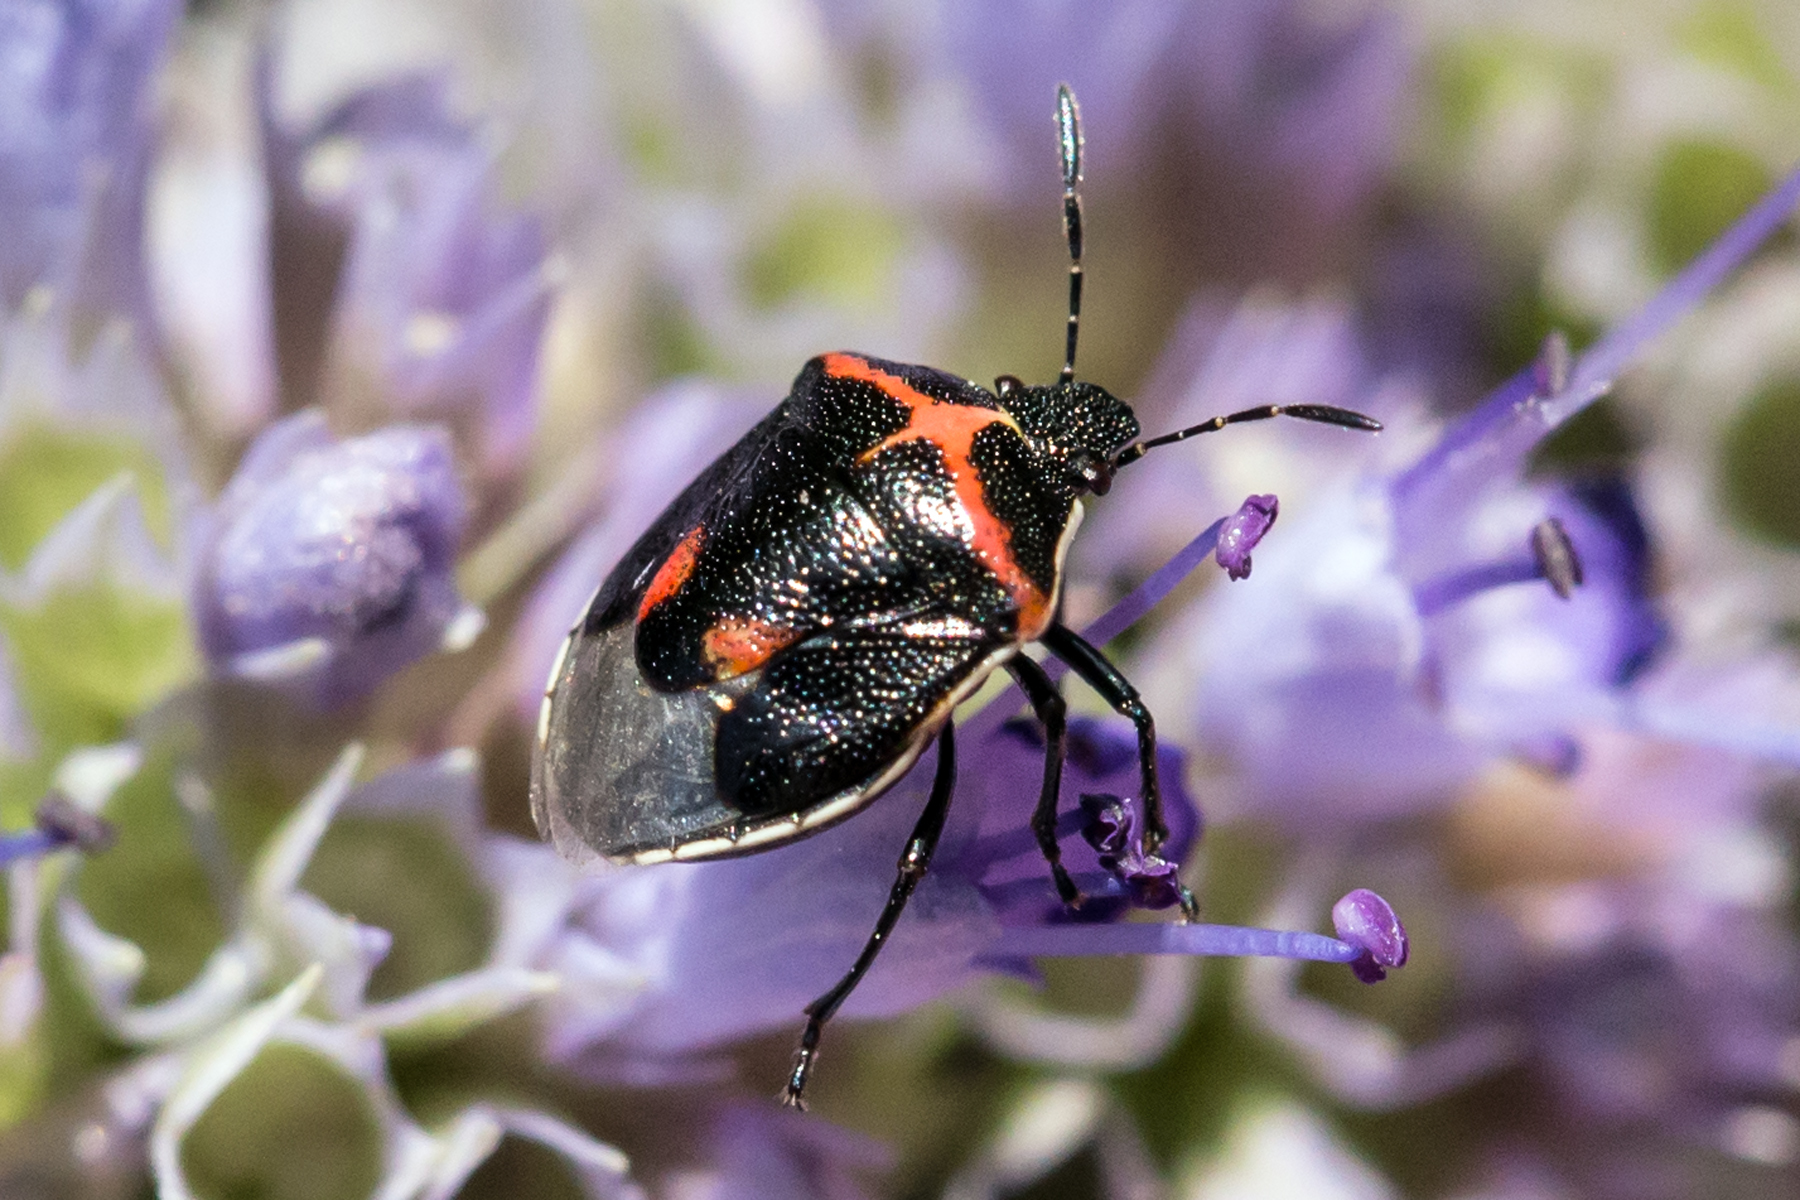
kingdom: Animalia
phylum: Arthropoda
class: Insecta
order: Hemiptera
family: Pentatomidae
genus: Cosmopepla
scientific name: Cosmopepla lintneriana
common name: Twice-stabbed stink bug
